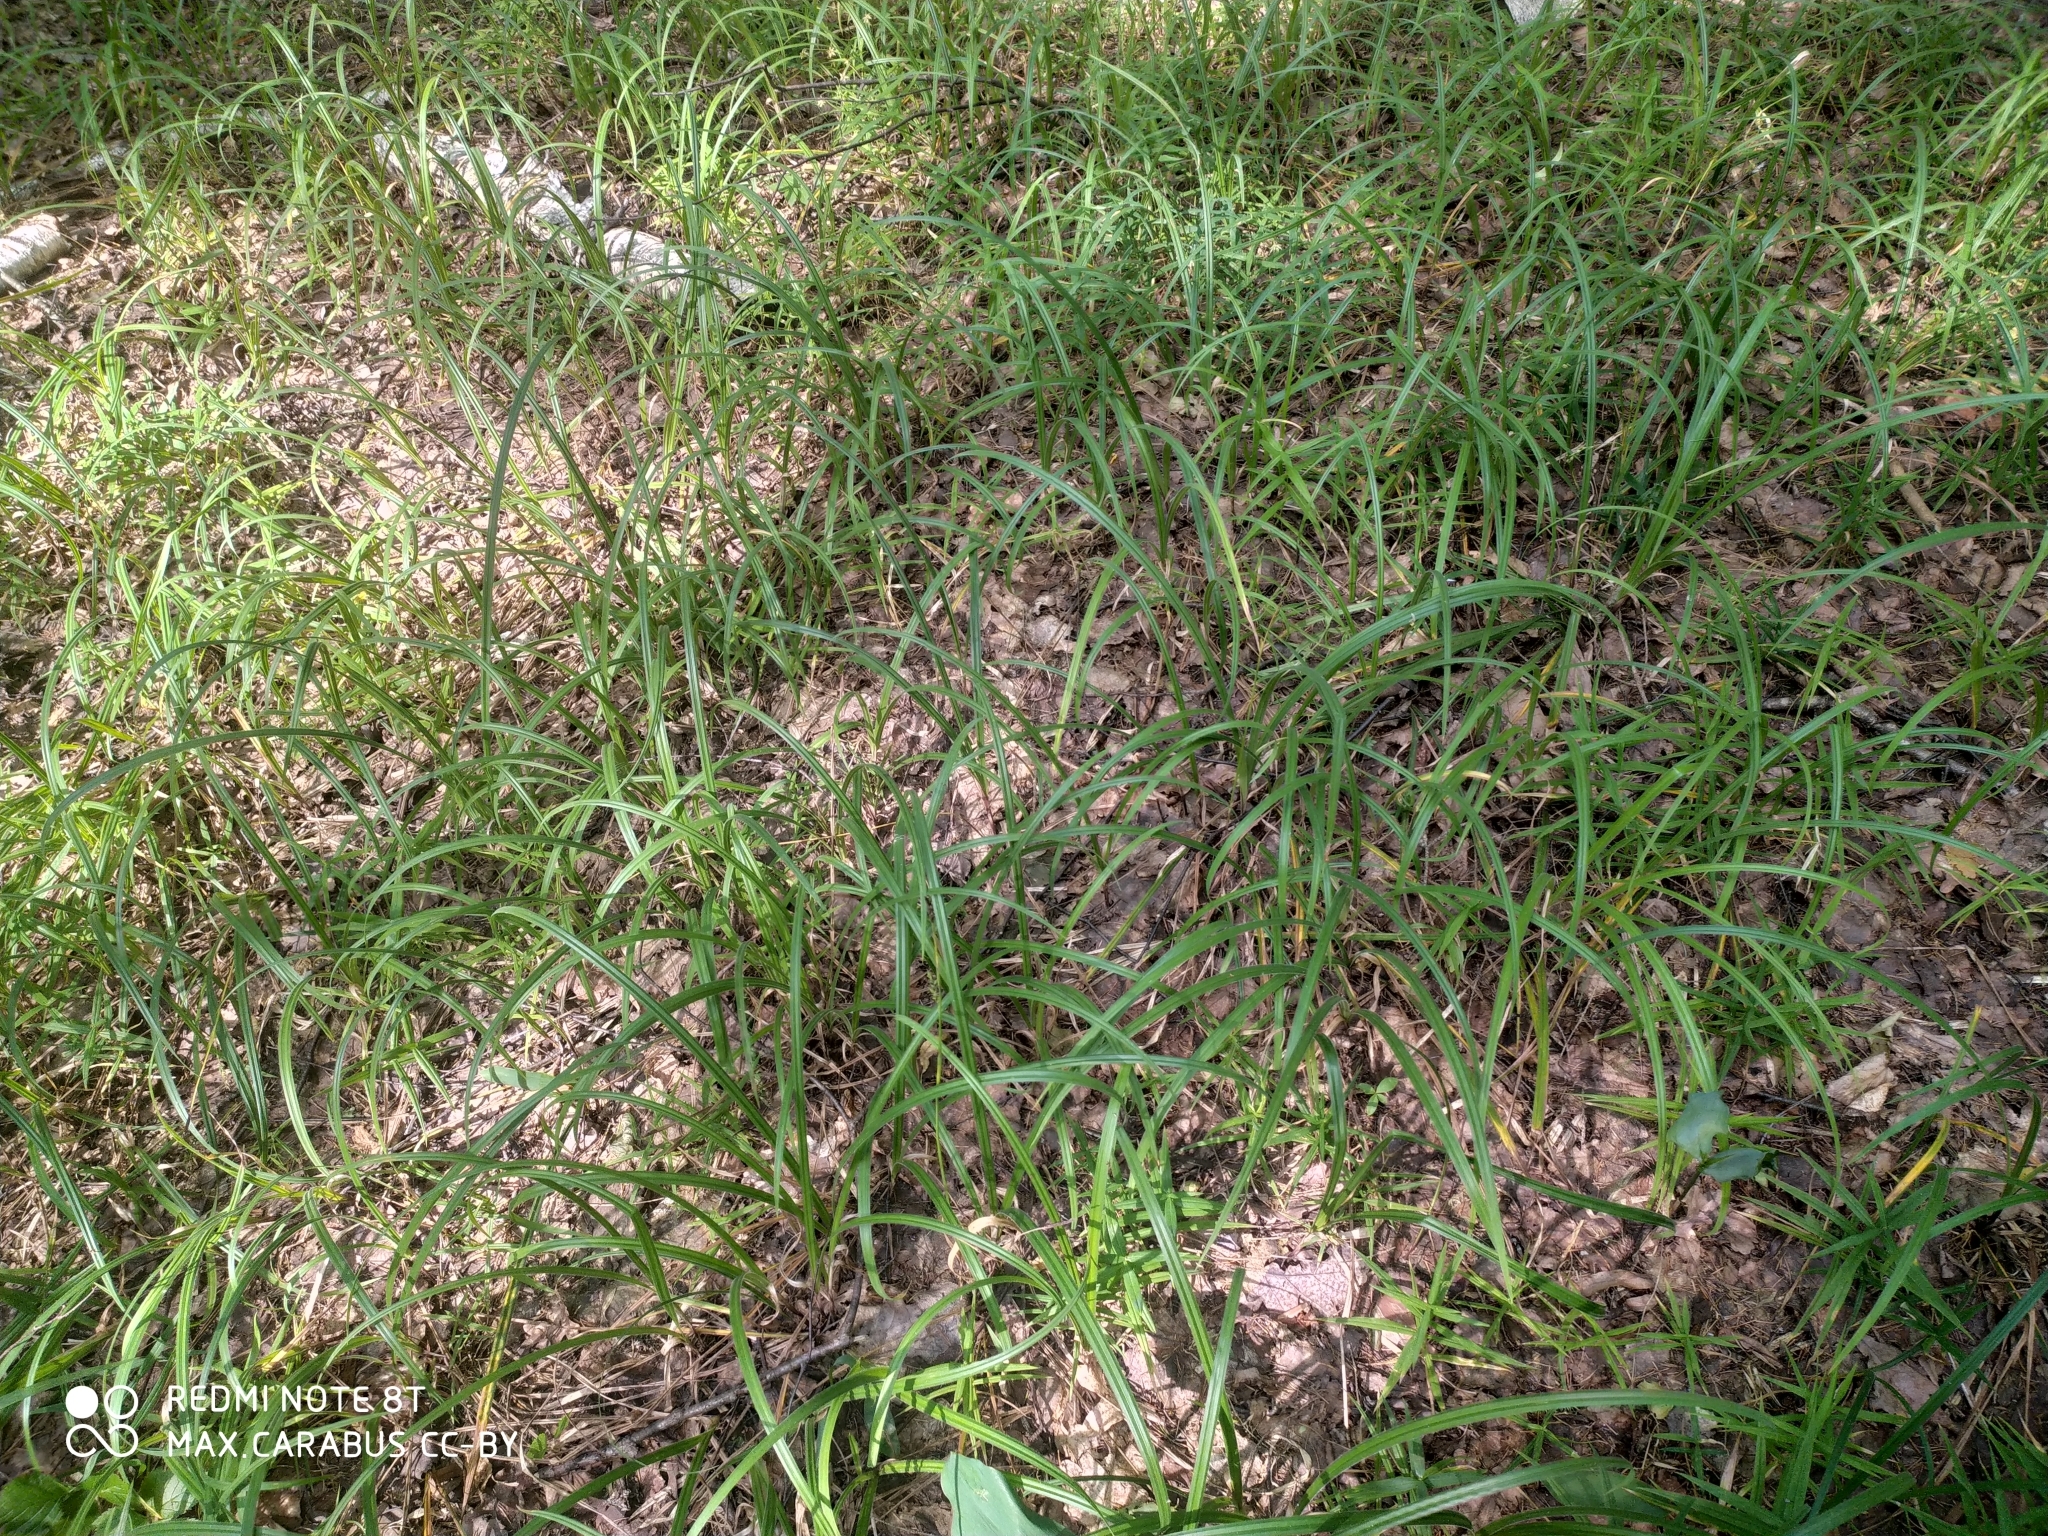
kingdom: Plantae
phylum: Tracheophyta
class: Liliopsida
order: Poales
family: Cyperaceae
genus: Carex
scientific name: Carex pilosa
